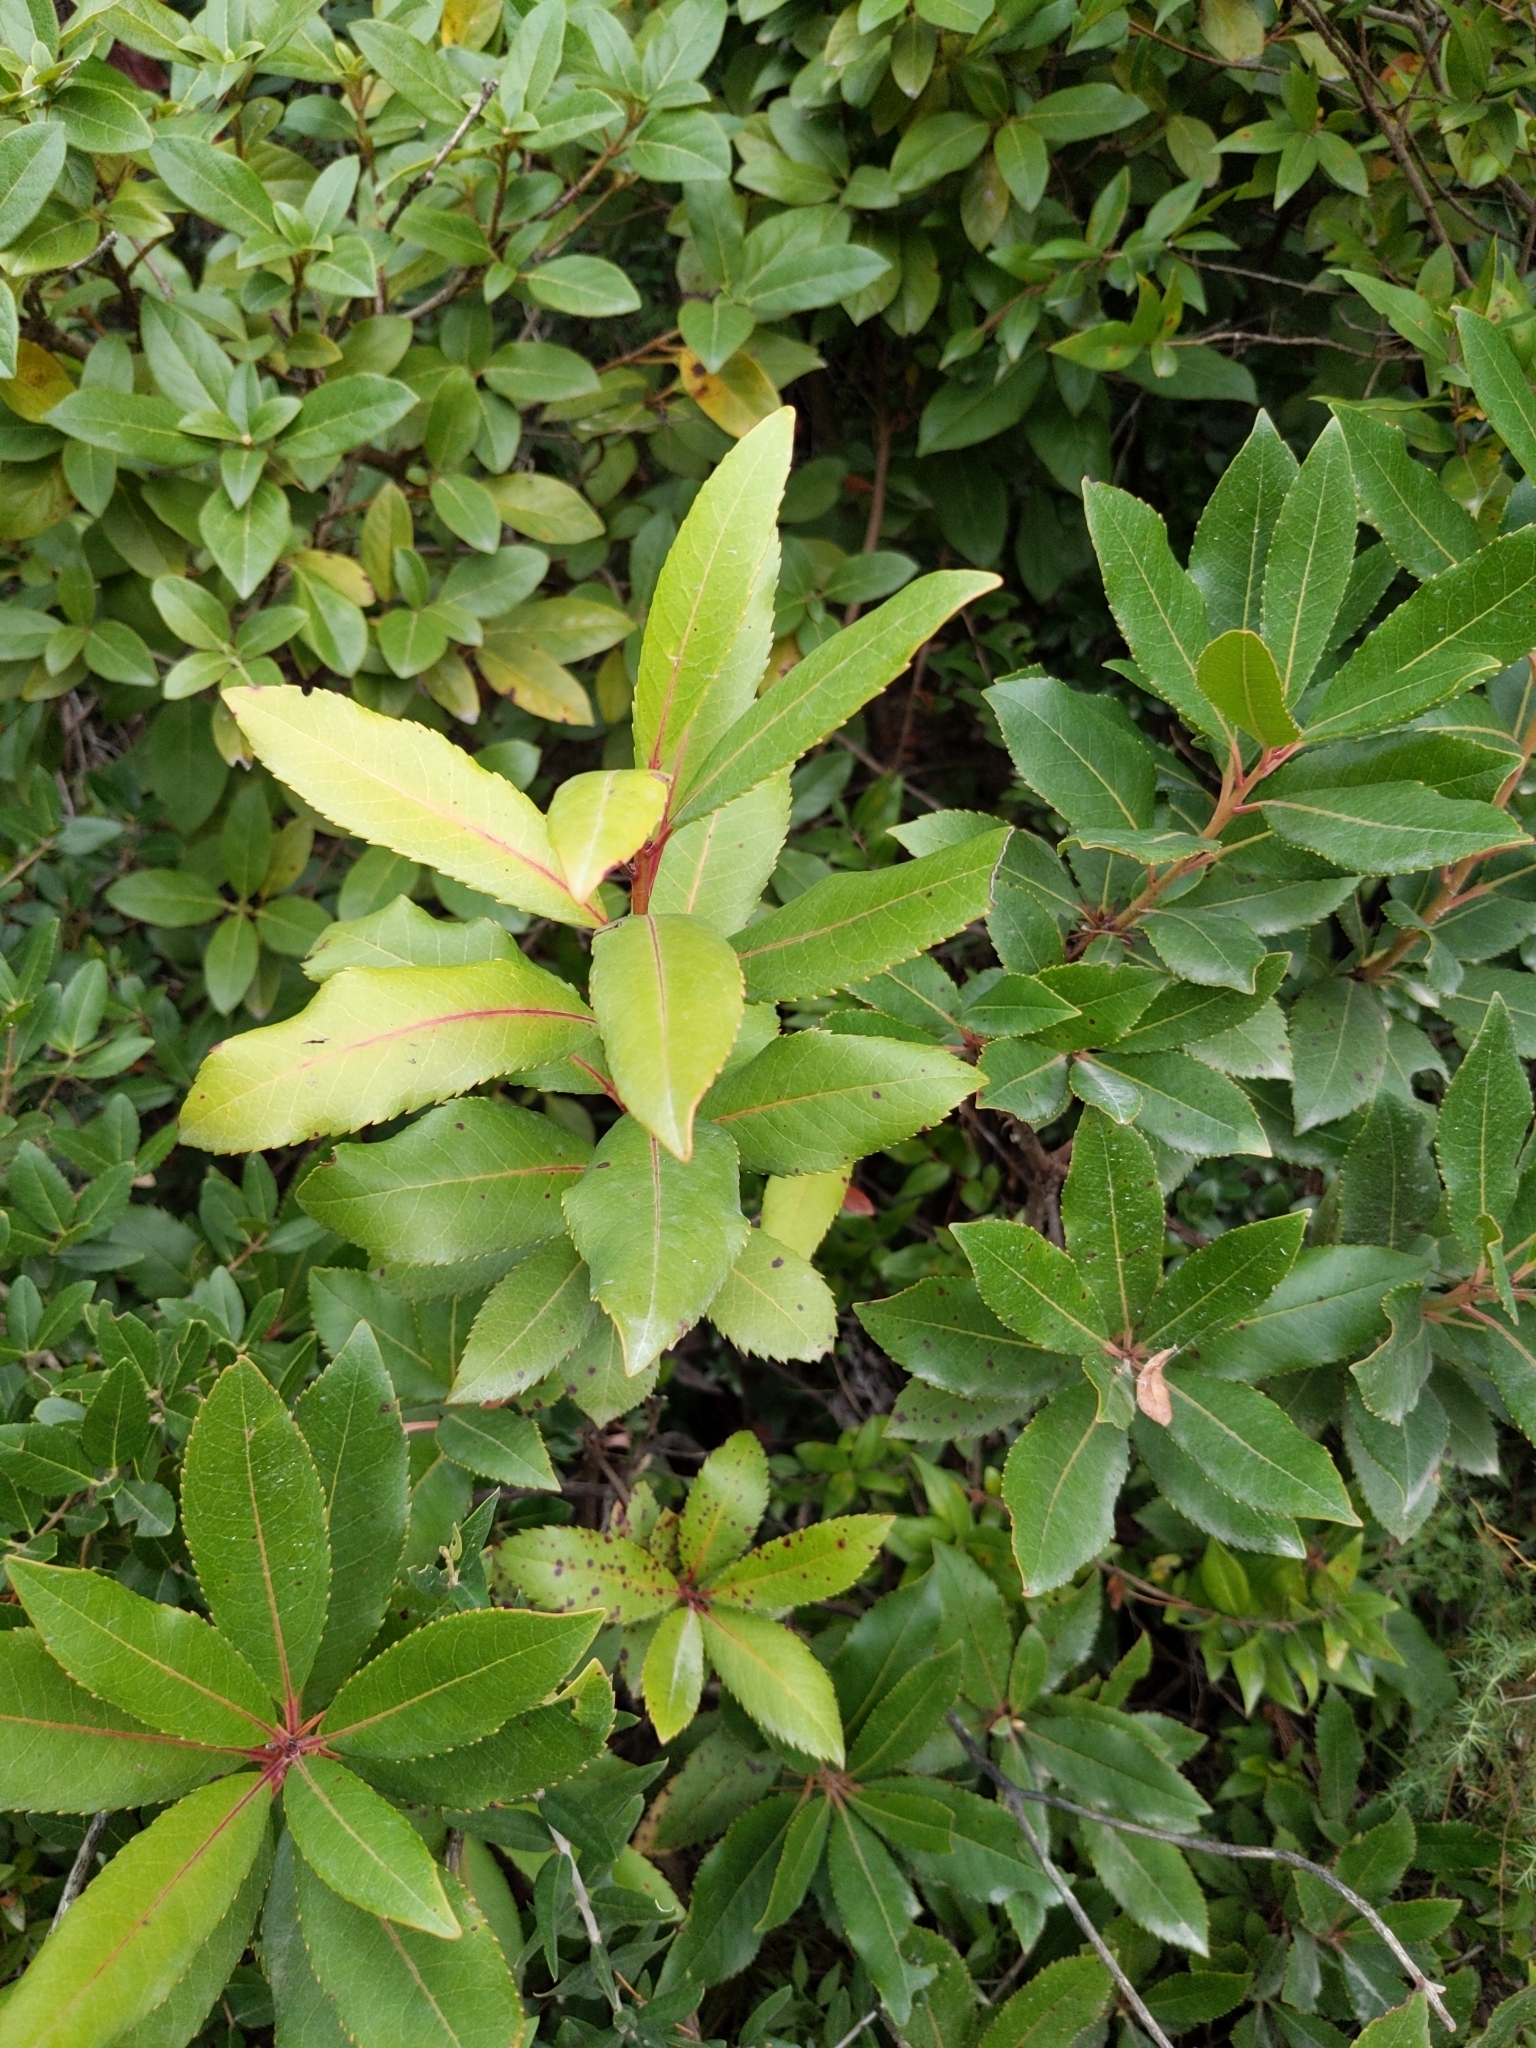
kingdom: Plantae
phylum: Tracheophyta
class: Magnoliopsida
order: Ericales
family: Ericaceae
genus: Arbutus
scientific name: Arbutus unedo
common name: Strawberry-tree
